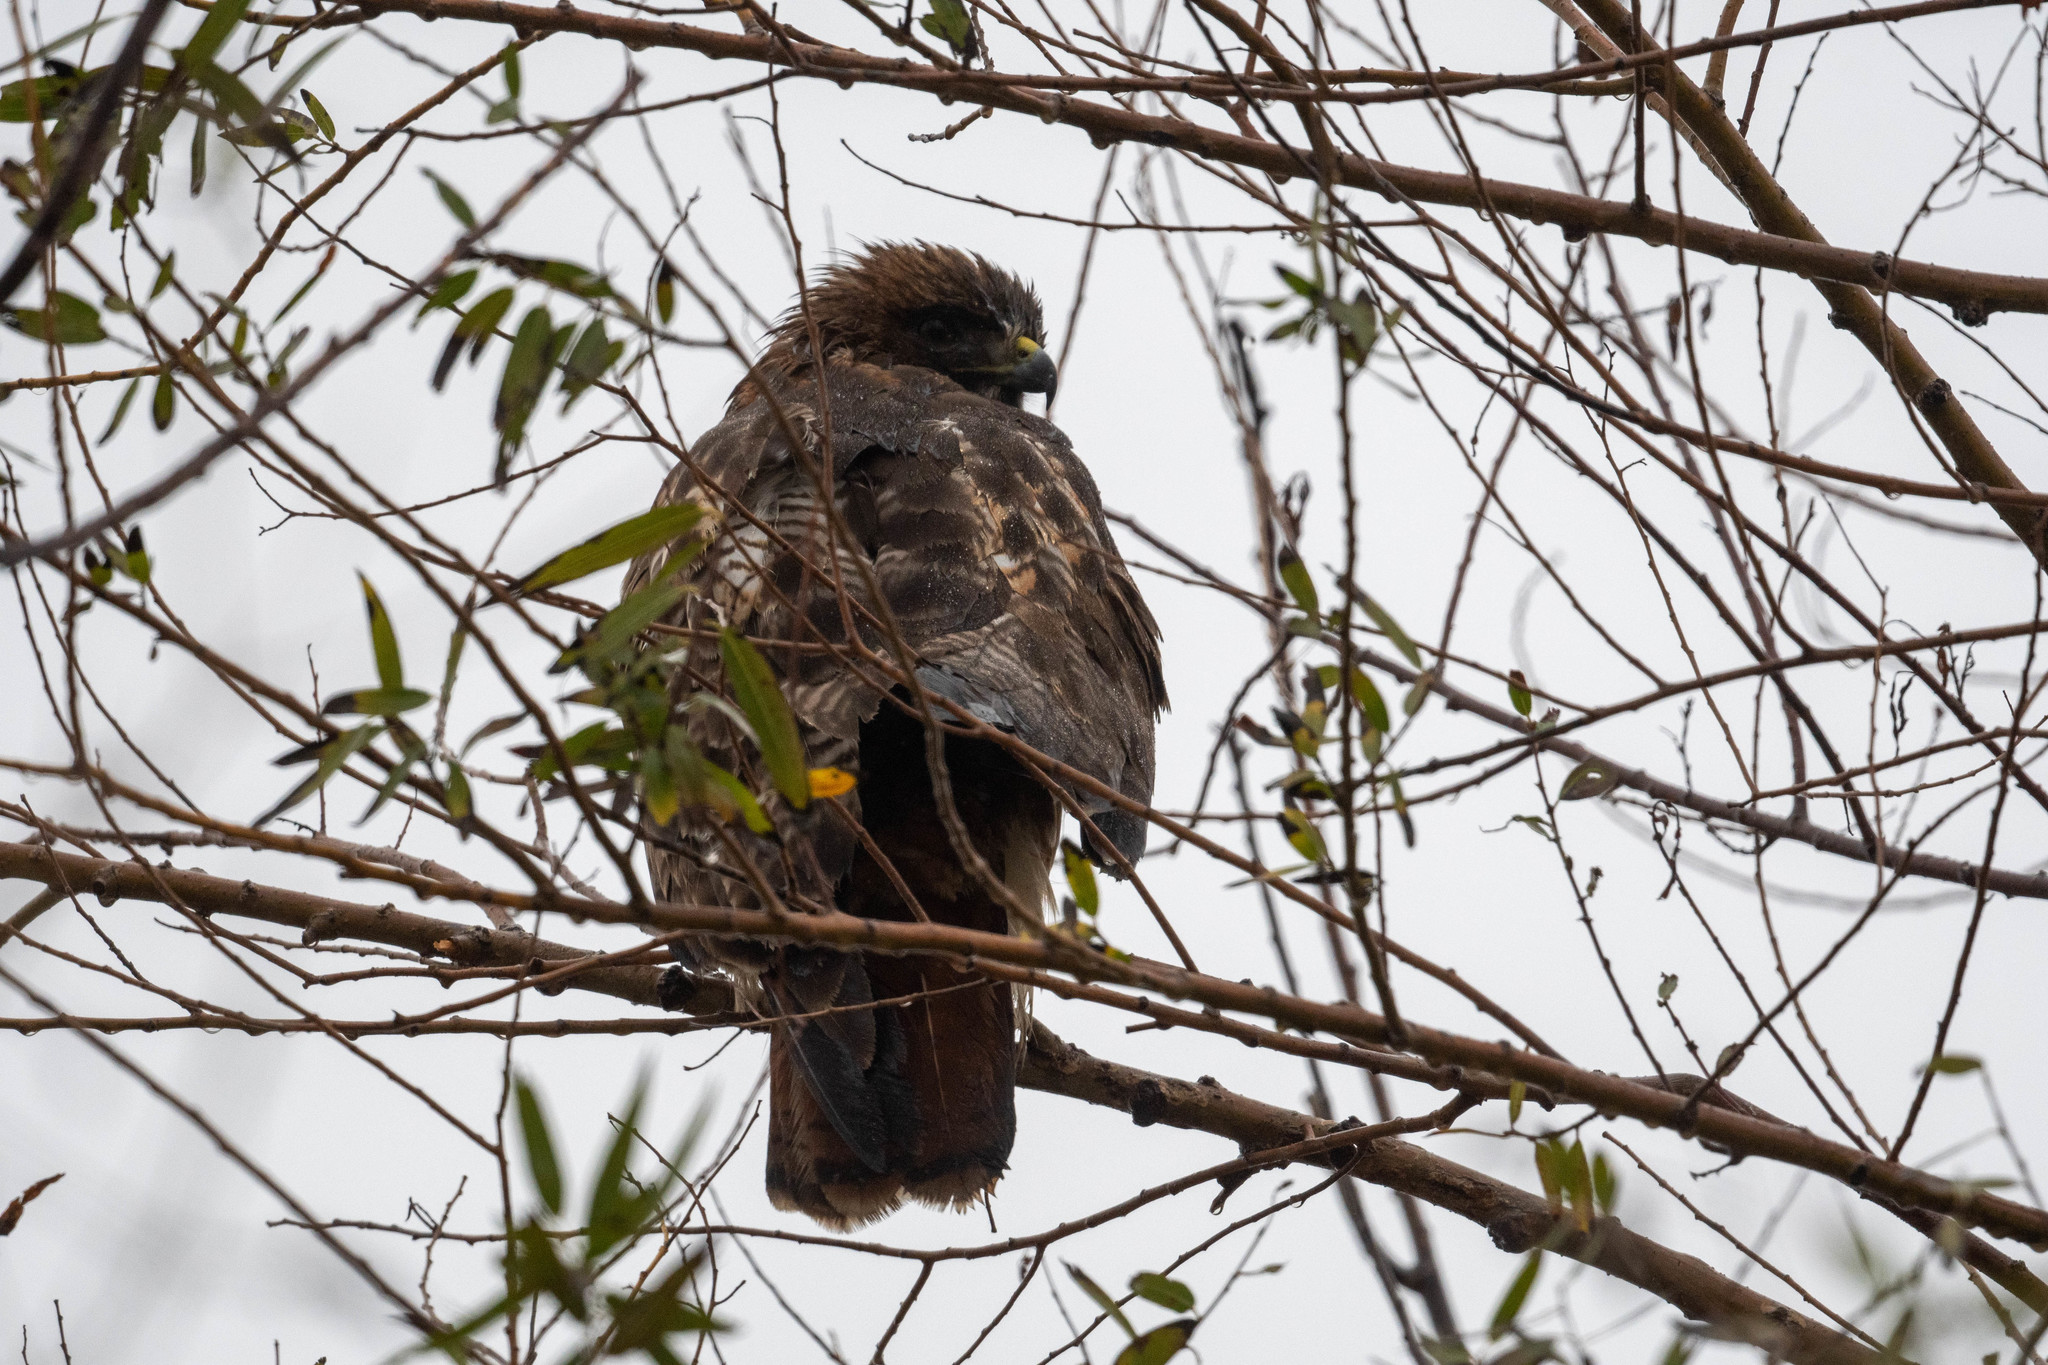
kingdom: Animalia
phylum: Chordata
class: Aves
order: Accipitriformes
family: Accipitridae
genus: Buteo
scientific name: Buteo jamaicensis
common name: Red-tailed hawk
